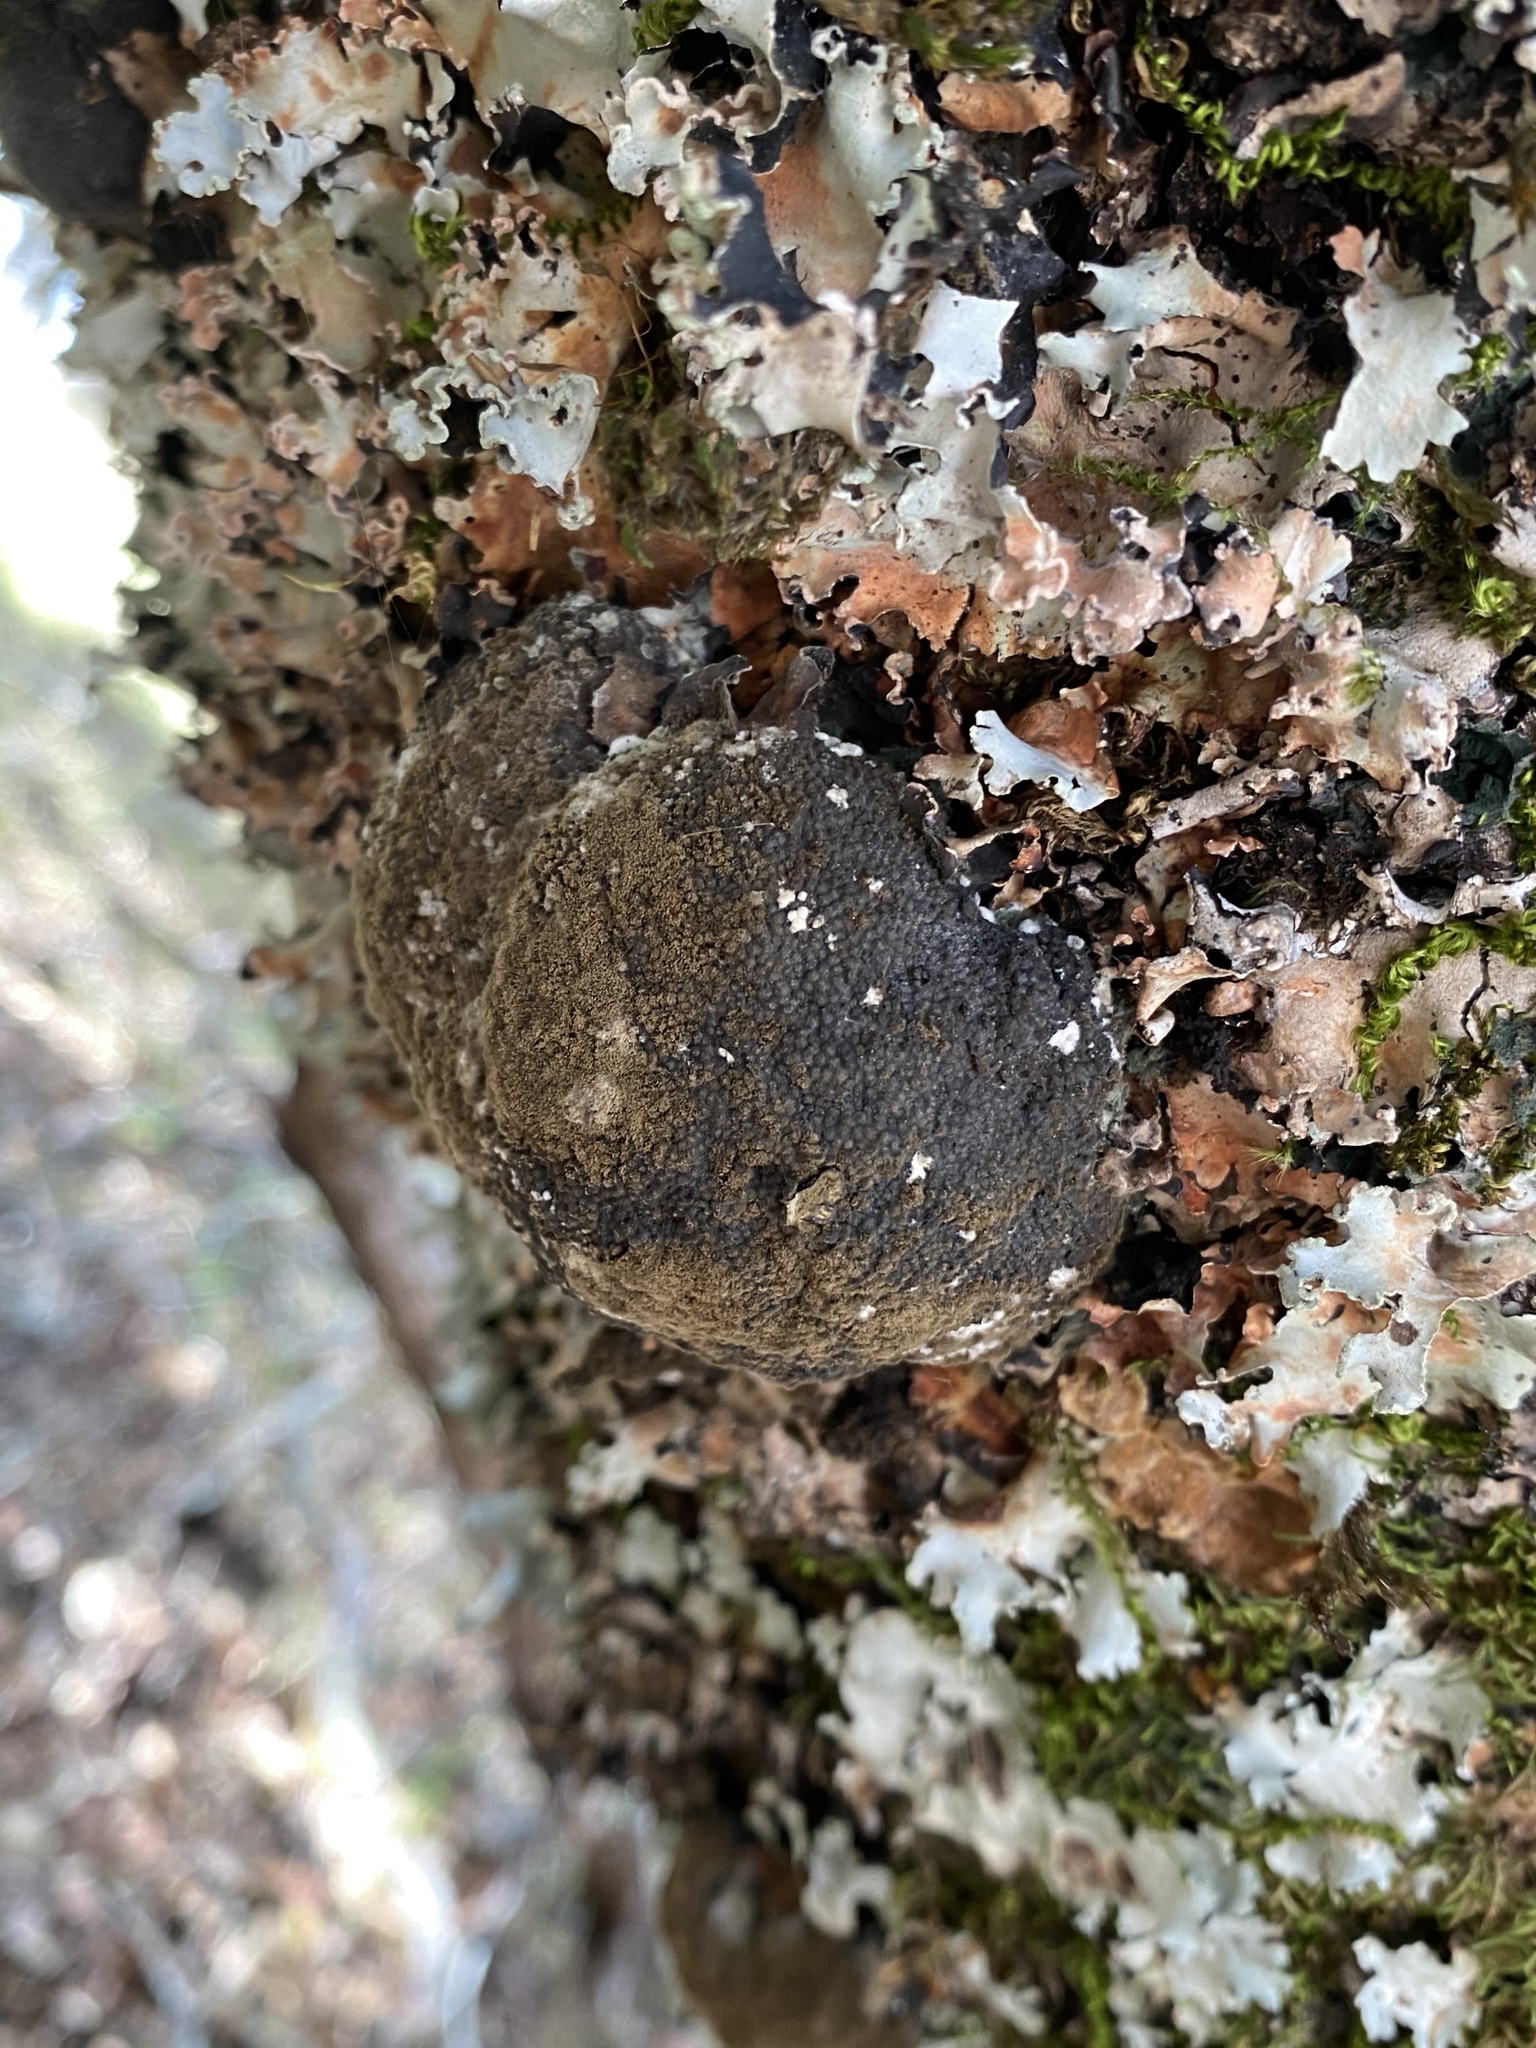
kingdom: Fungi
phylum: Ascomycota
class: Sordariomycetes
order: Xylariales
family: Hypoxylaceae
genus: Annulohypoxylon
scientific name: Annulohypoxylon thouarsianum
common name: Cramp balls
